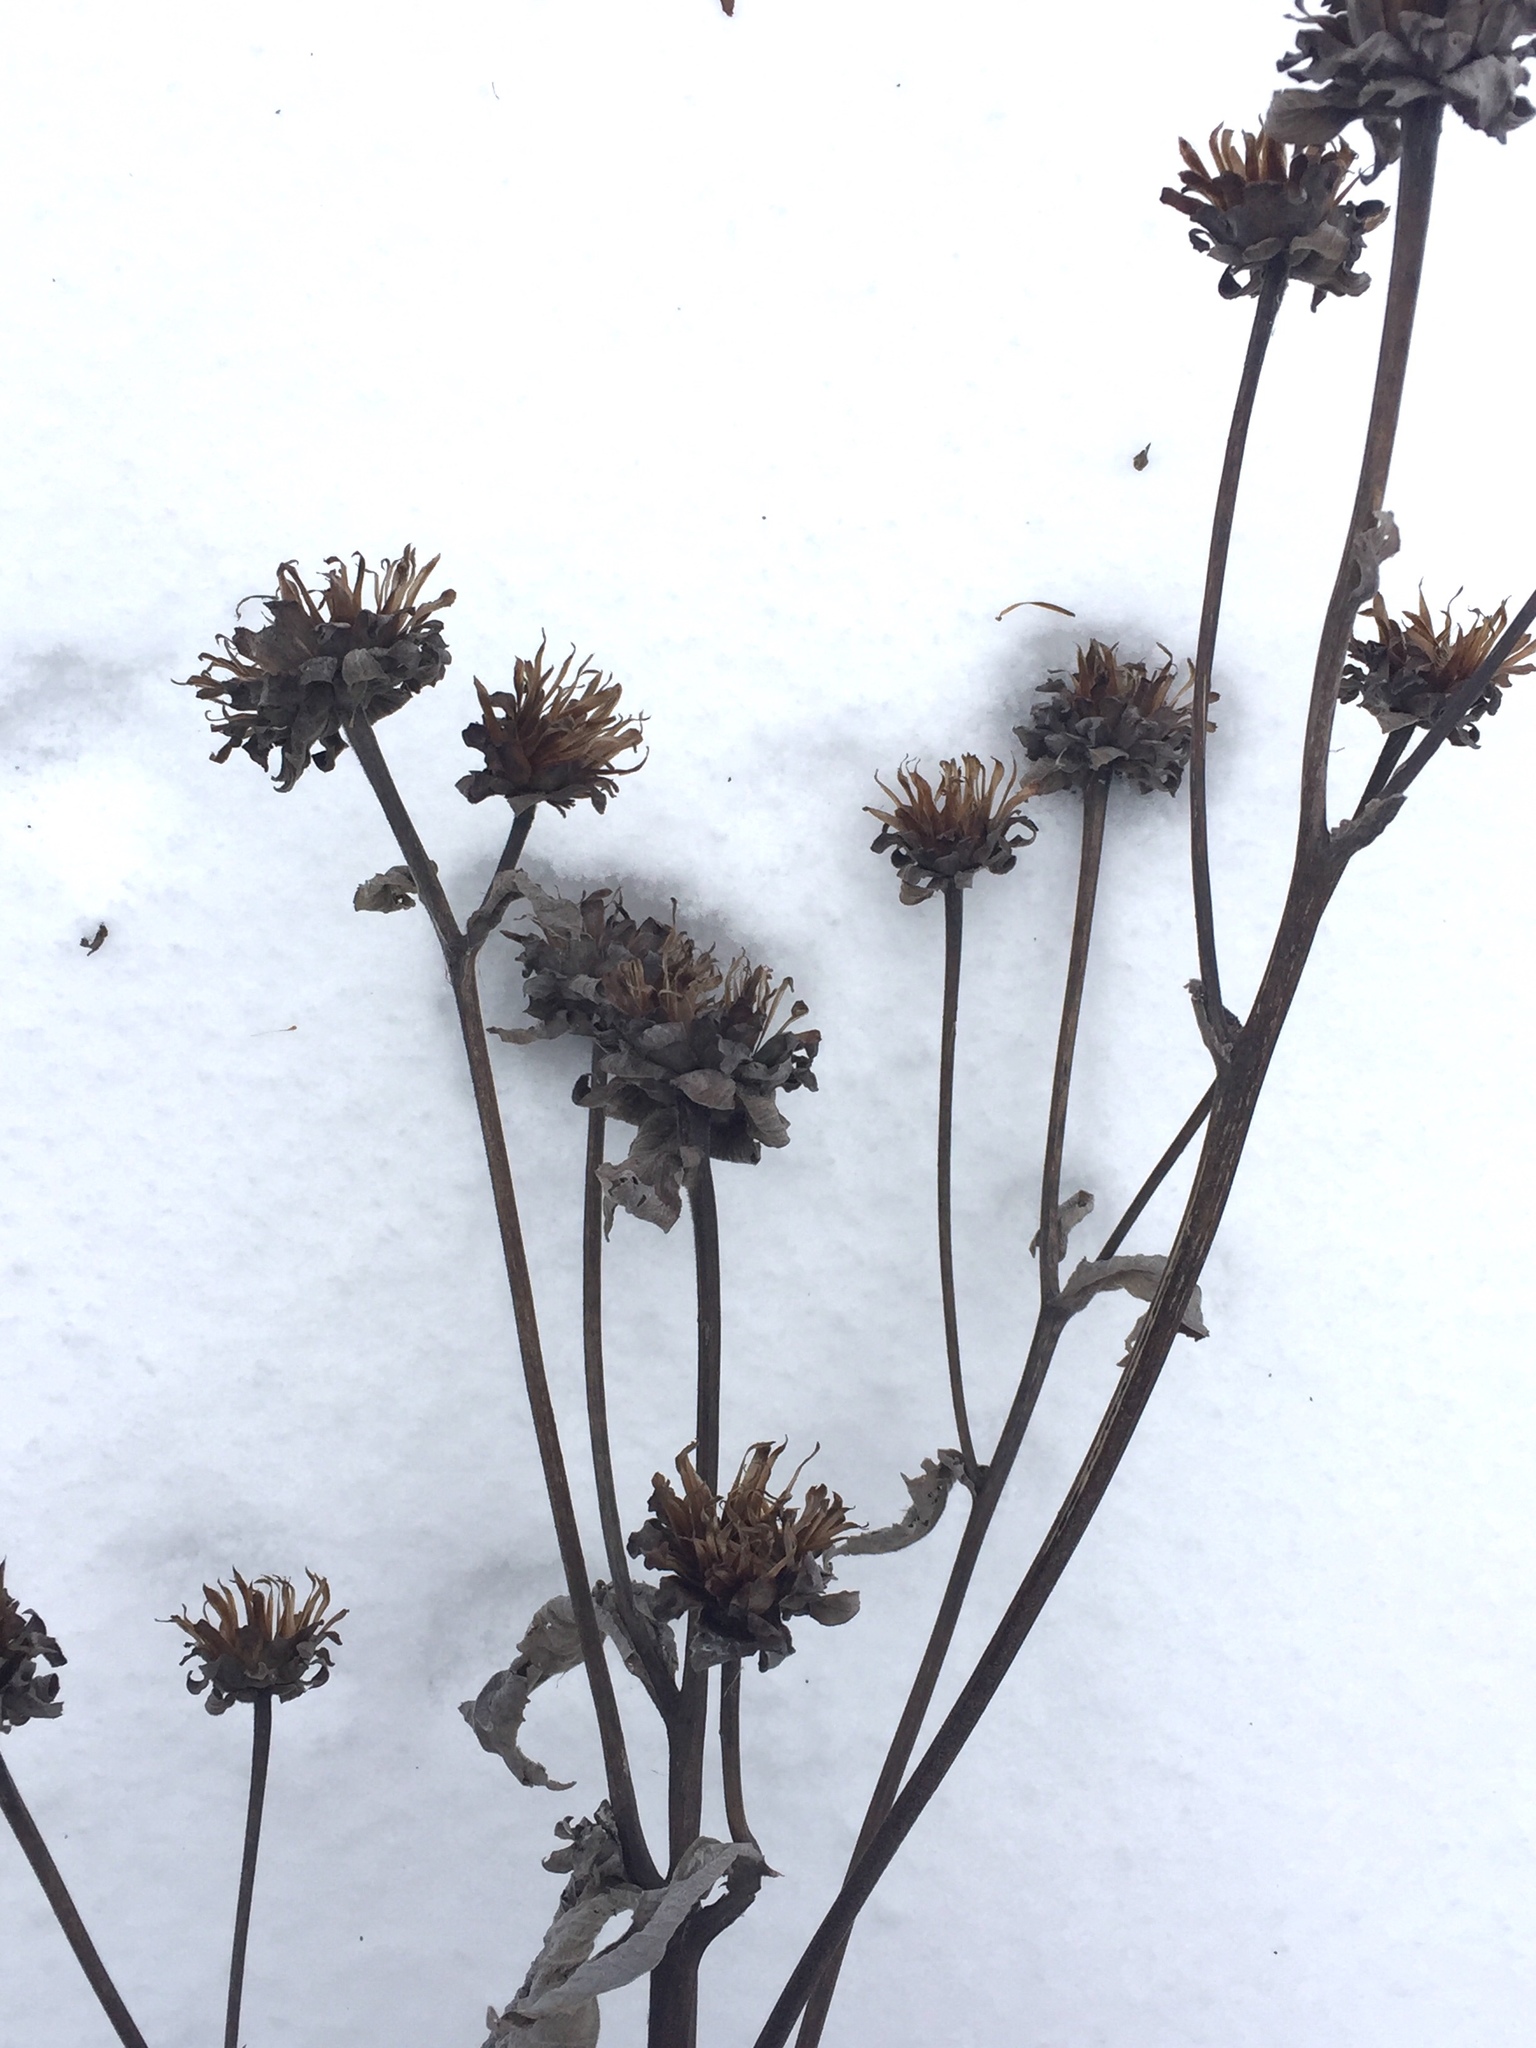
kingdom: Plantae
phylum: Tracheophyta
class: Magnoliopsida
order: Asterales
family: Asteraceae
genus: Inula
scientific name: Inula helenium
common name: Elecampane
